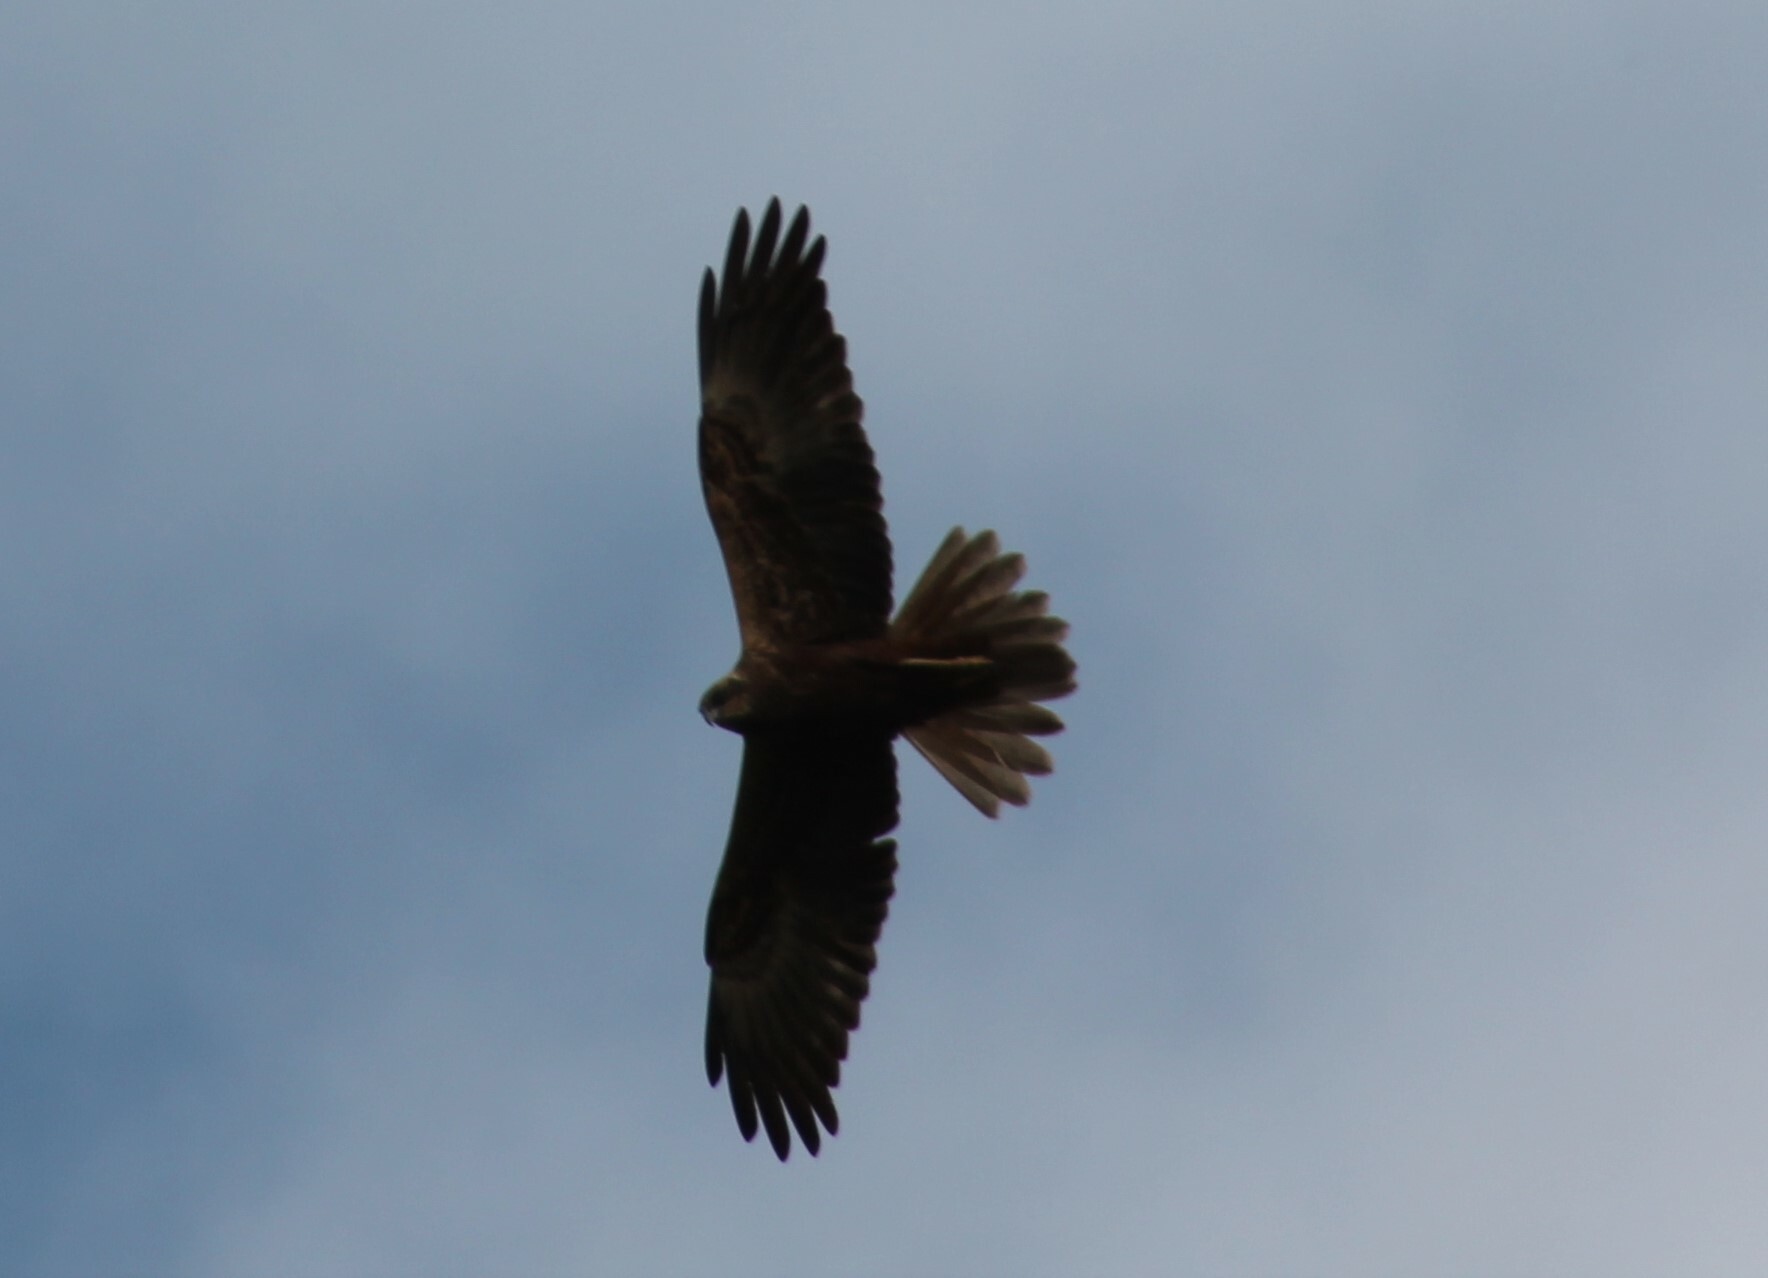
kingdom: Animalia
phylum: Chordata
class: Aves
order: Accipitriformes
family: Accipitridae
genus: Circus
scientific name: Circus aeruginosus
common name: Western marsh harrier
